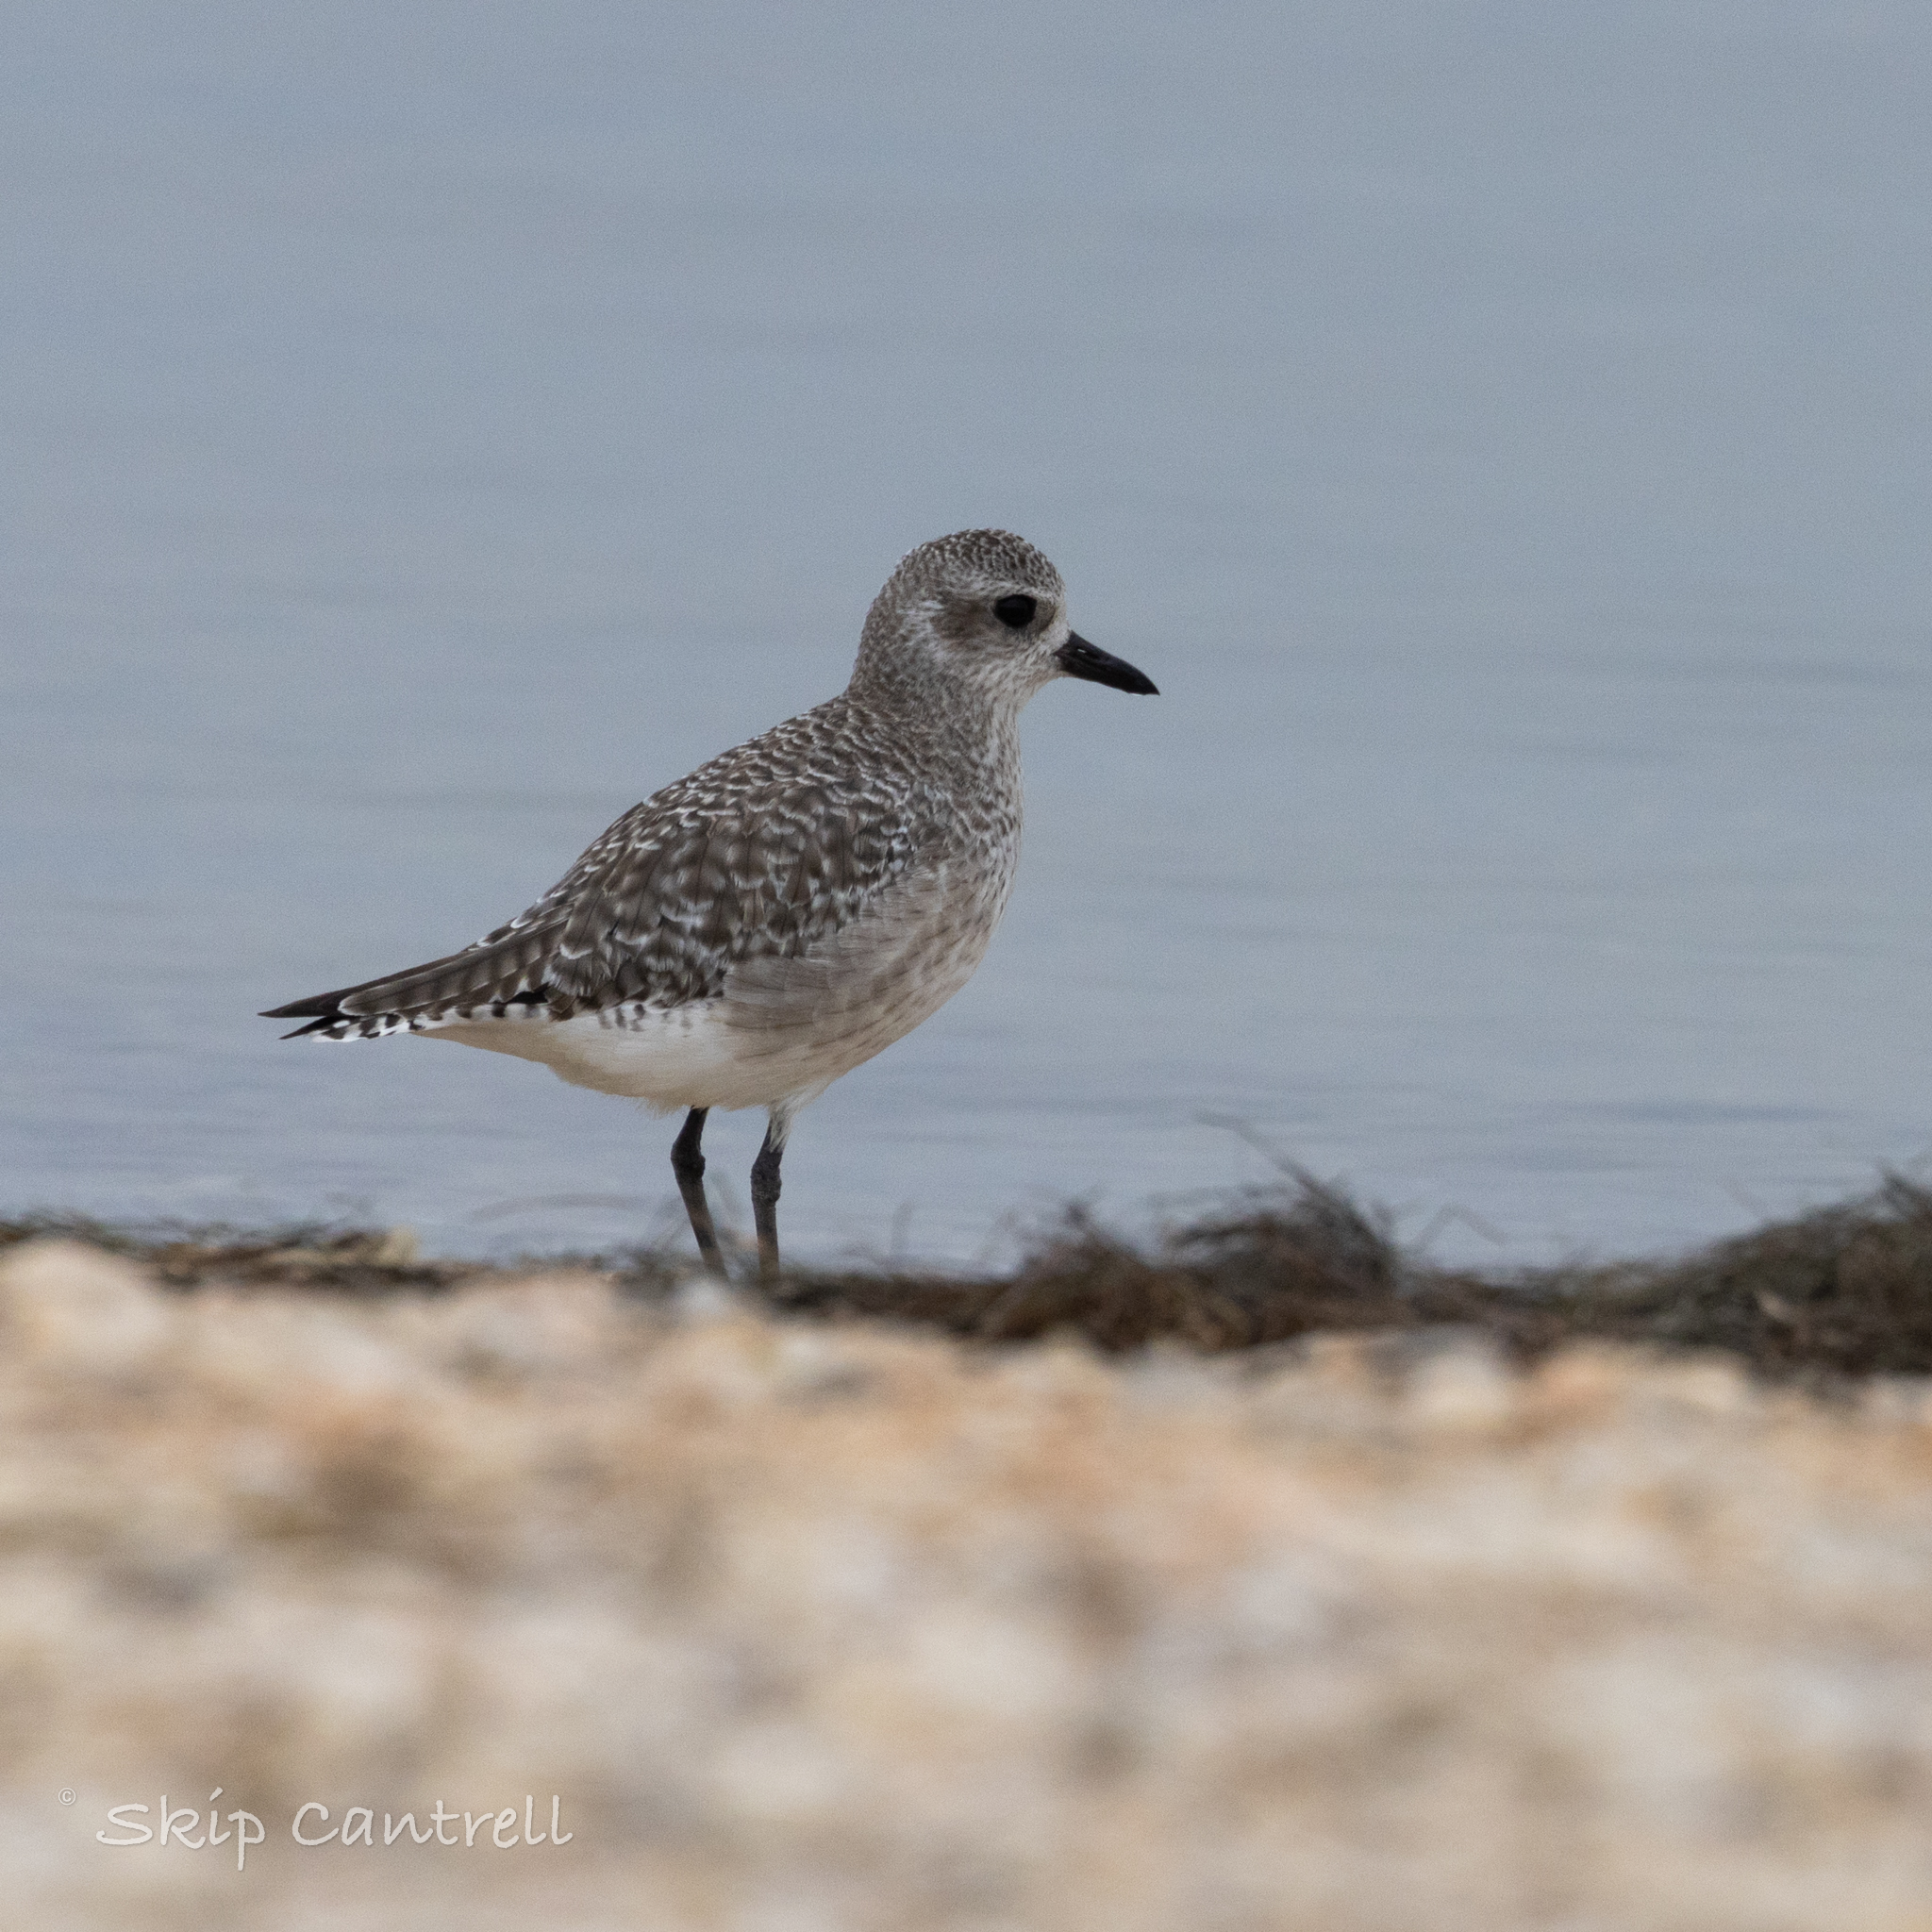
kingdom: Animalia
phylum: Chordata
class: Aves
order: Charadriiformes
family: Charadriidae
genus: Pluvialis
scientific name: Pluvialis squatarola
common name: Grey plover
